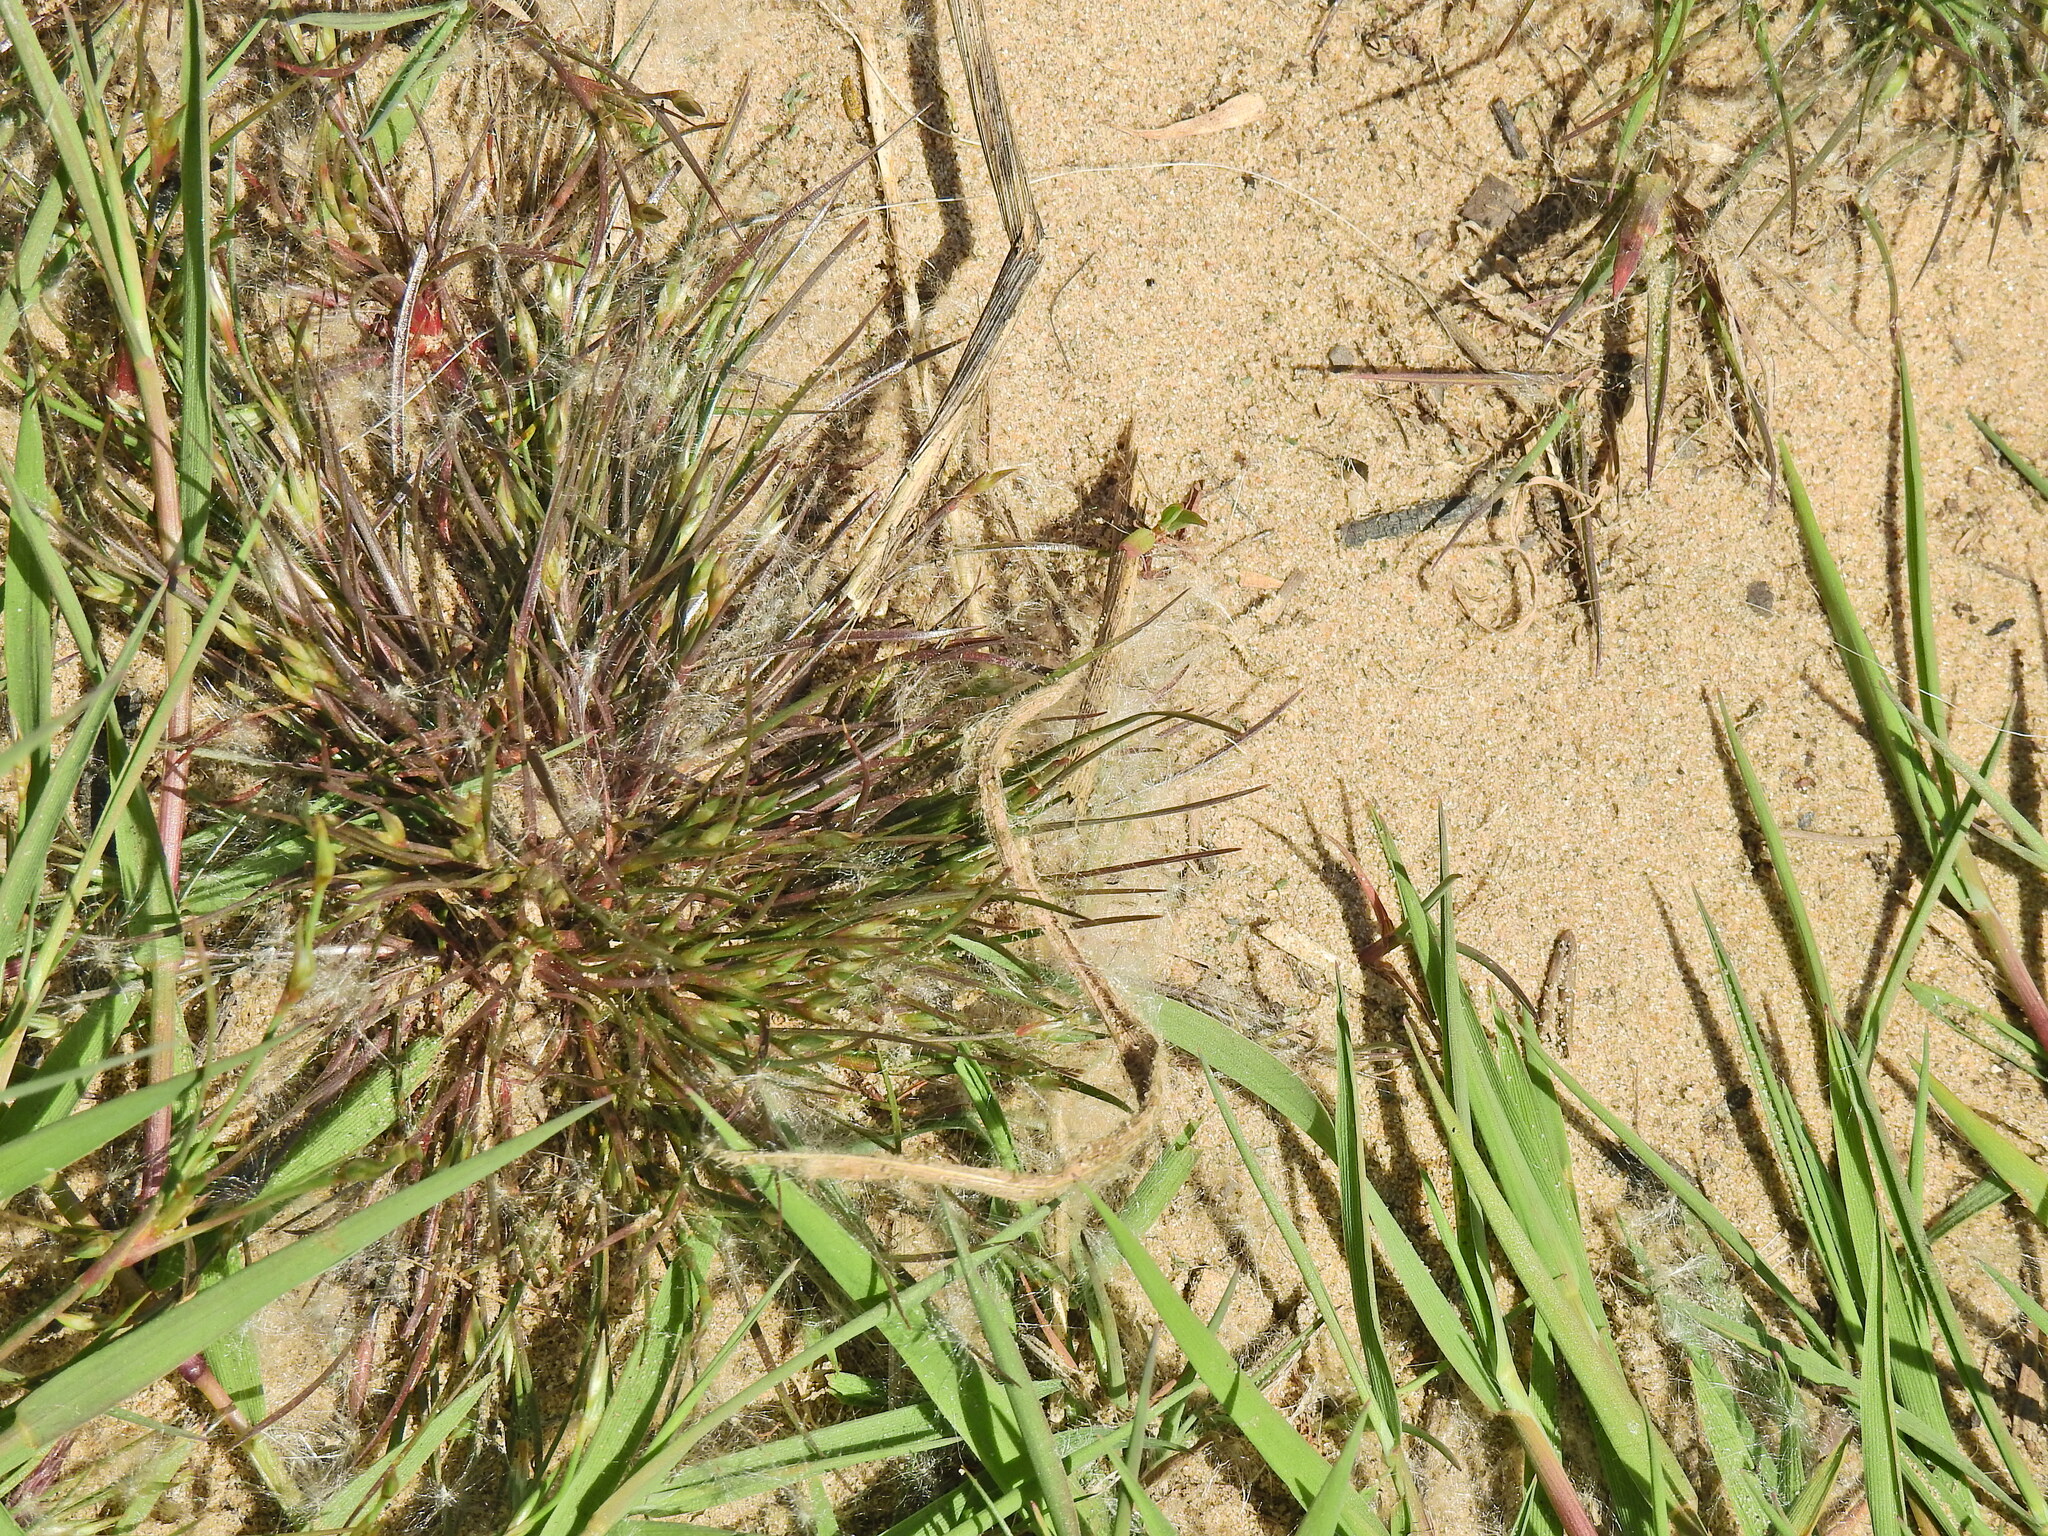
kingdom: Plantae
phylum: Tracheophyta
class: Liliopsida
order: Poales
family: Juncaceae
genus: Juncus
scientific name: Juncus bufonius
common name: Toad rush
